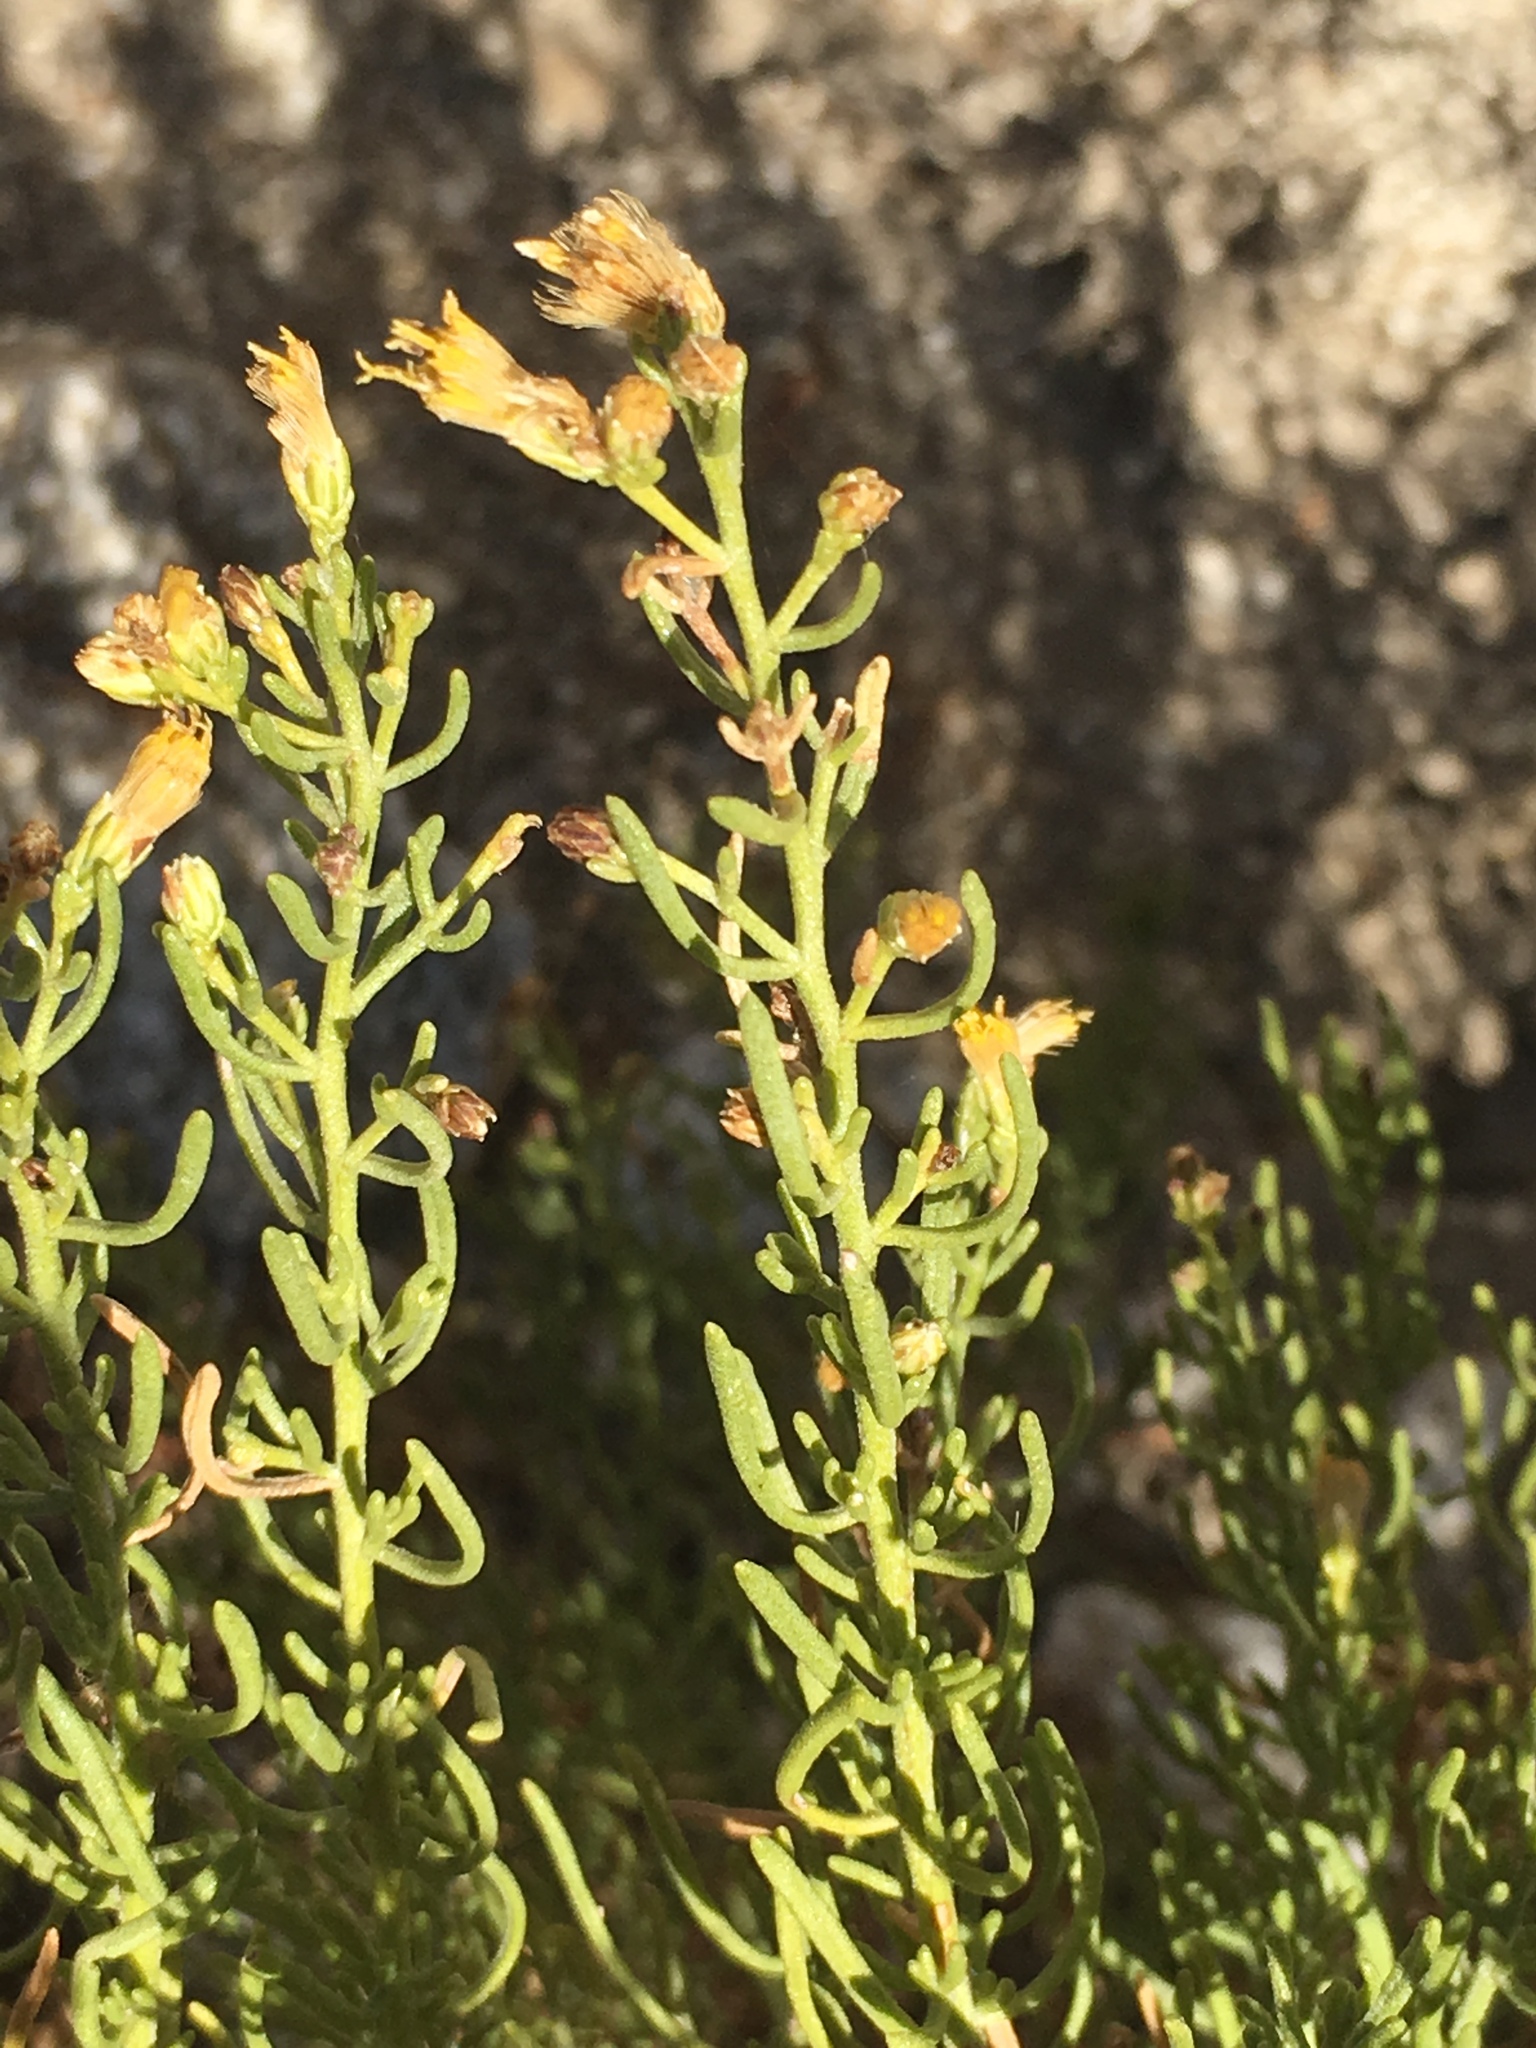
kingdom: Plantae
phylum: Tracheophyta
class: Magnoliopsida
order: Asterales
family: Asteraceae
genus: Ericameria
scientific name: Ericameria brachylepis
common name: Boundary goldenbush
